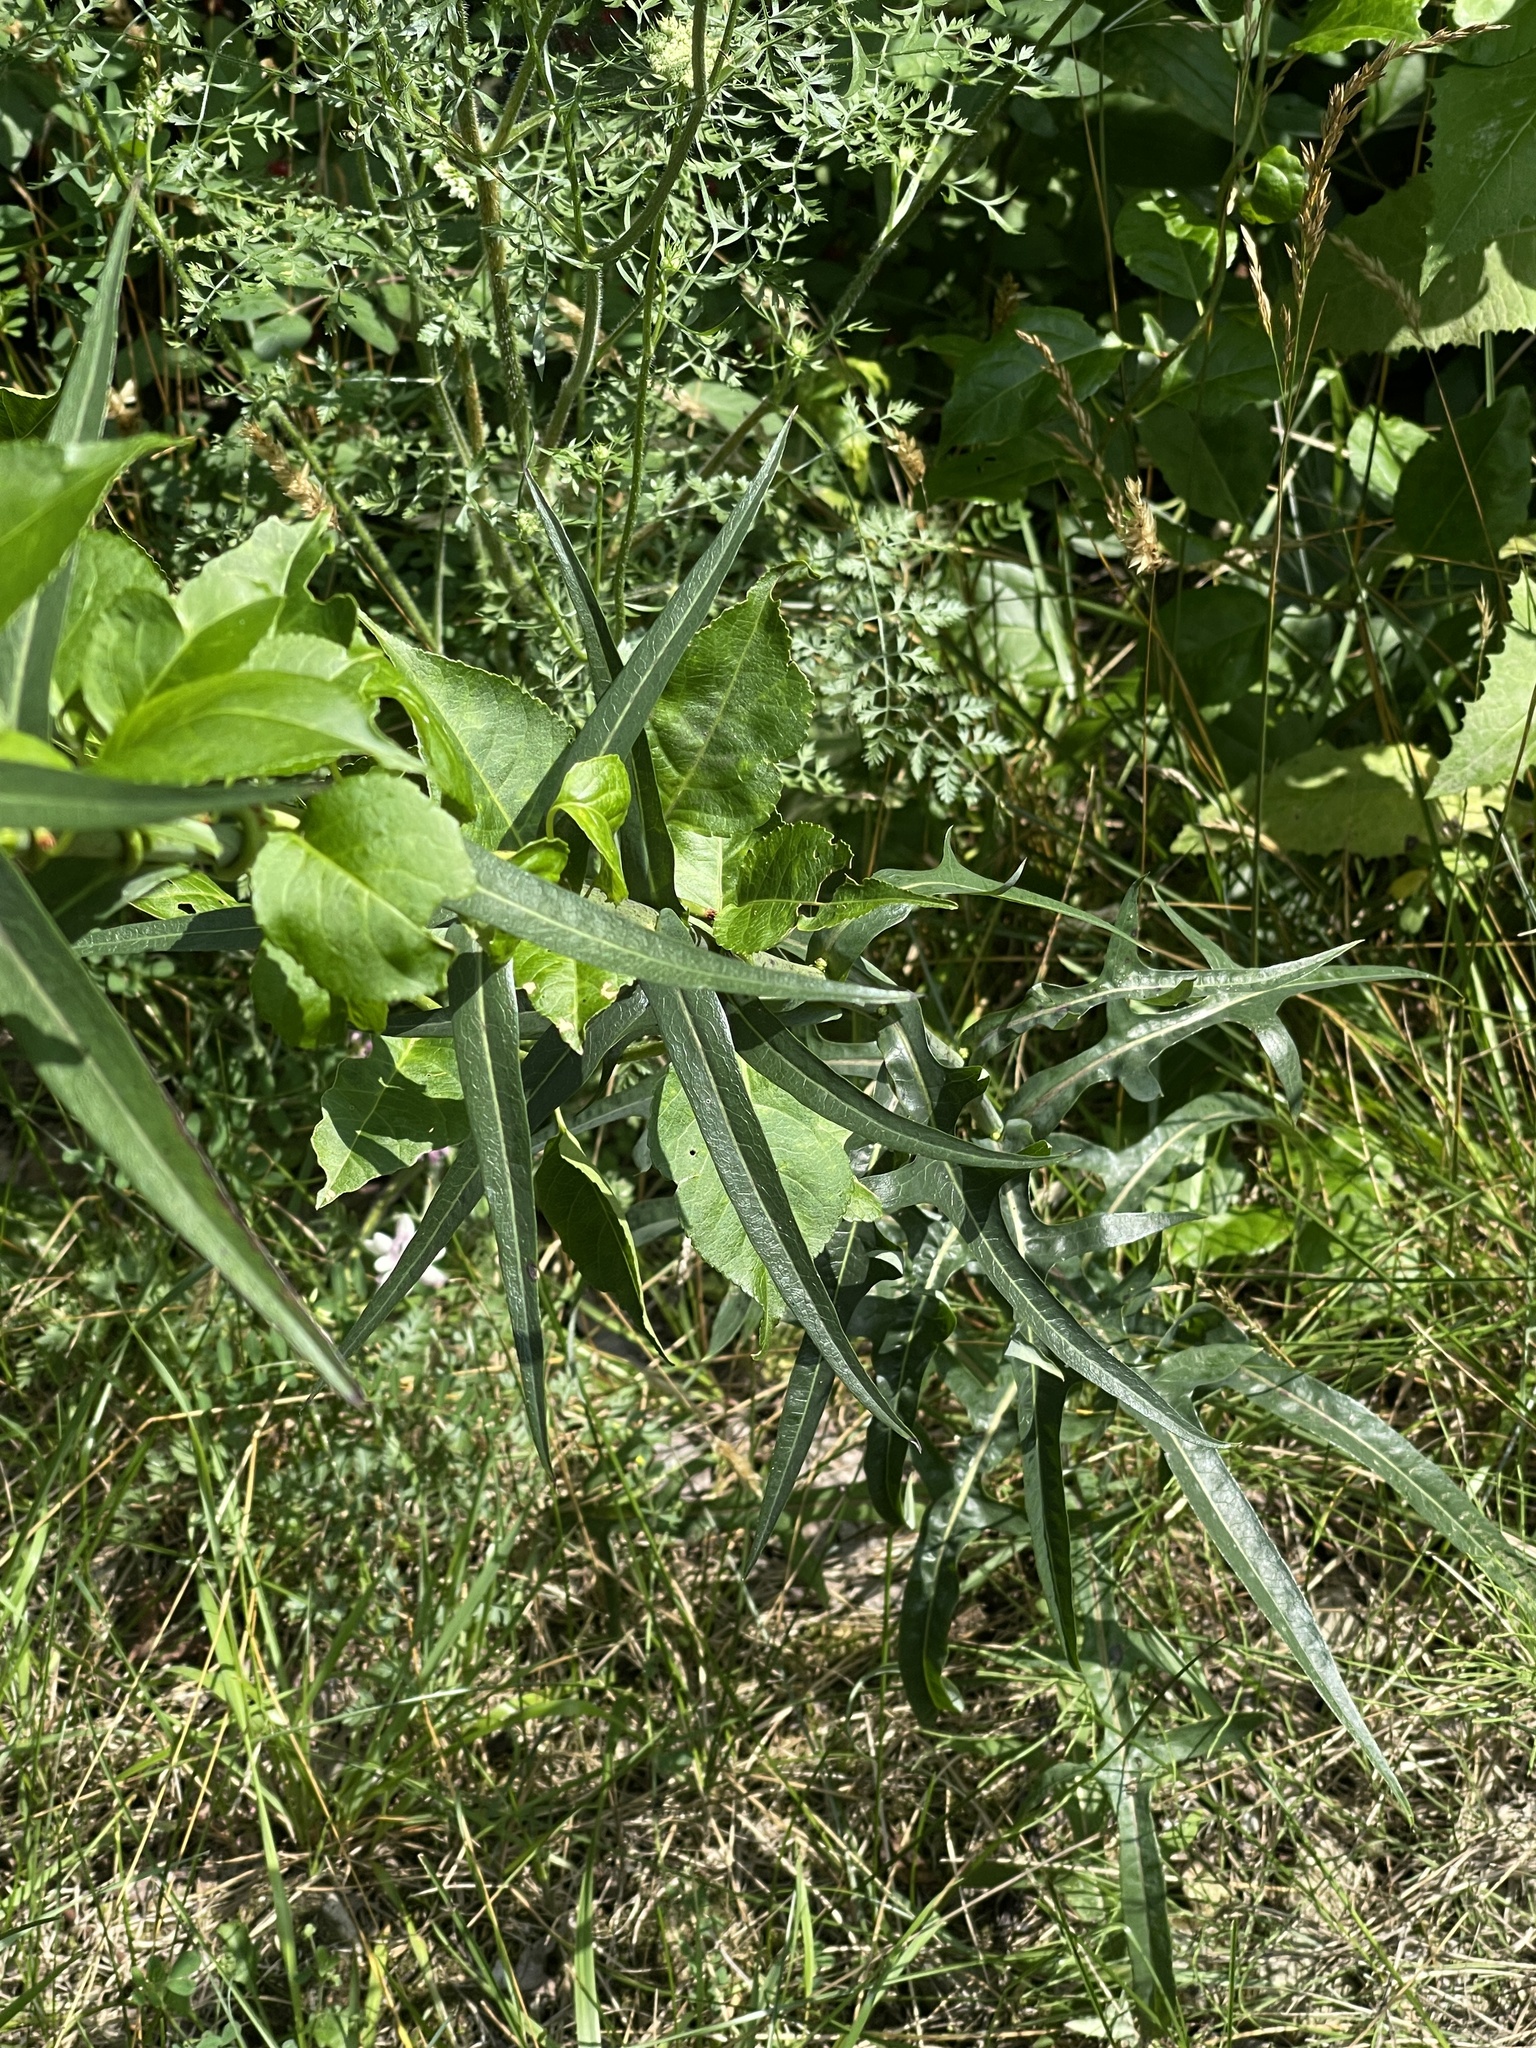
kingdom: Plantae
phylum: Tracheophyta
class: Magnoliopsida
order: Asterales
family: Asteraceae
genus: Lactuca
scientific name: Lactuca canadensis
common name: Canada lettuce
